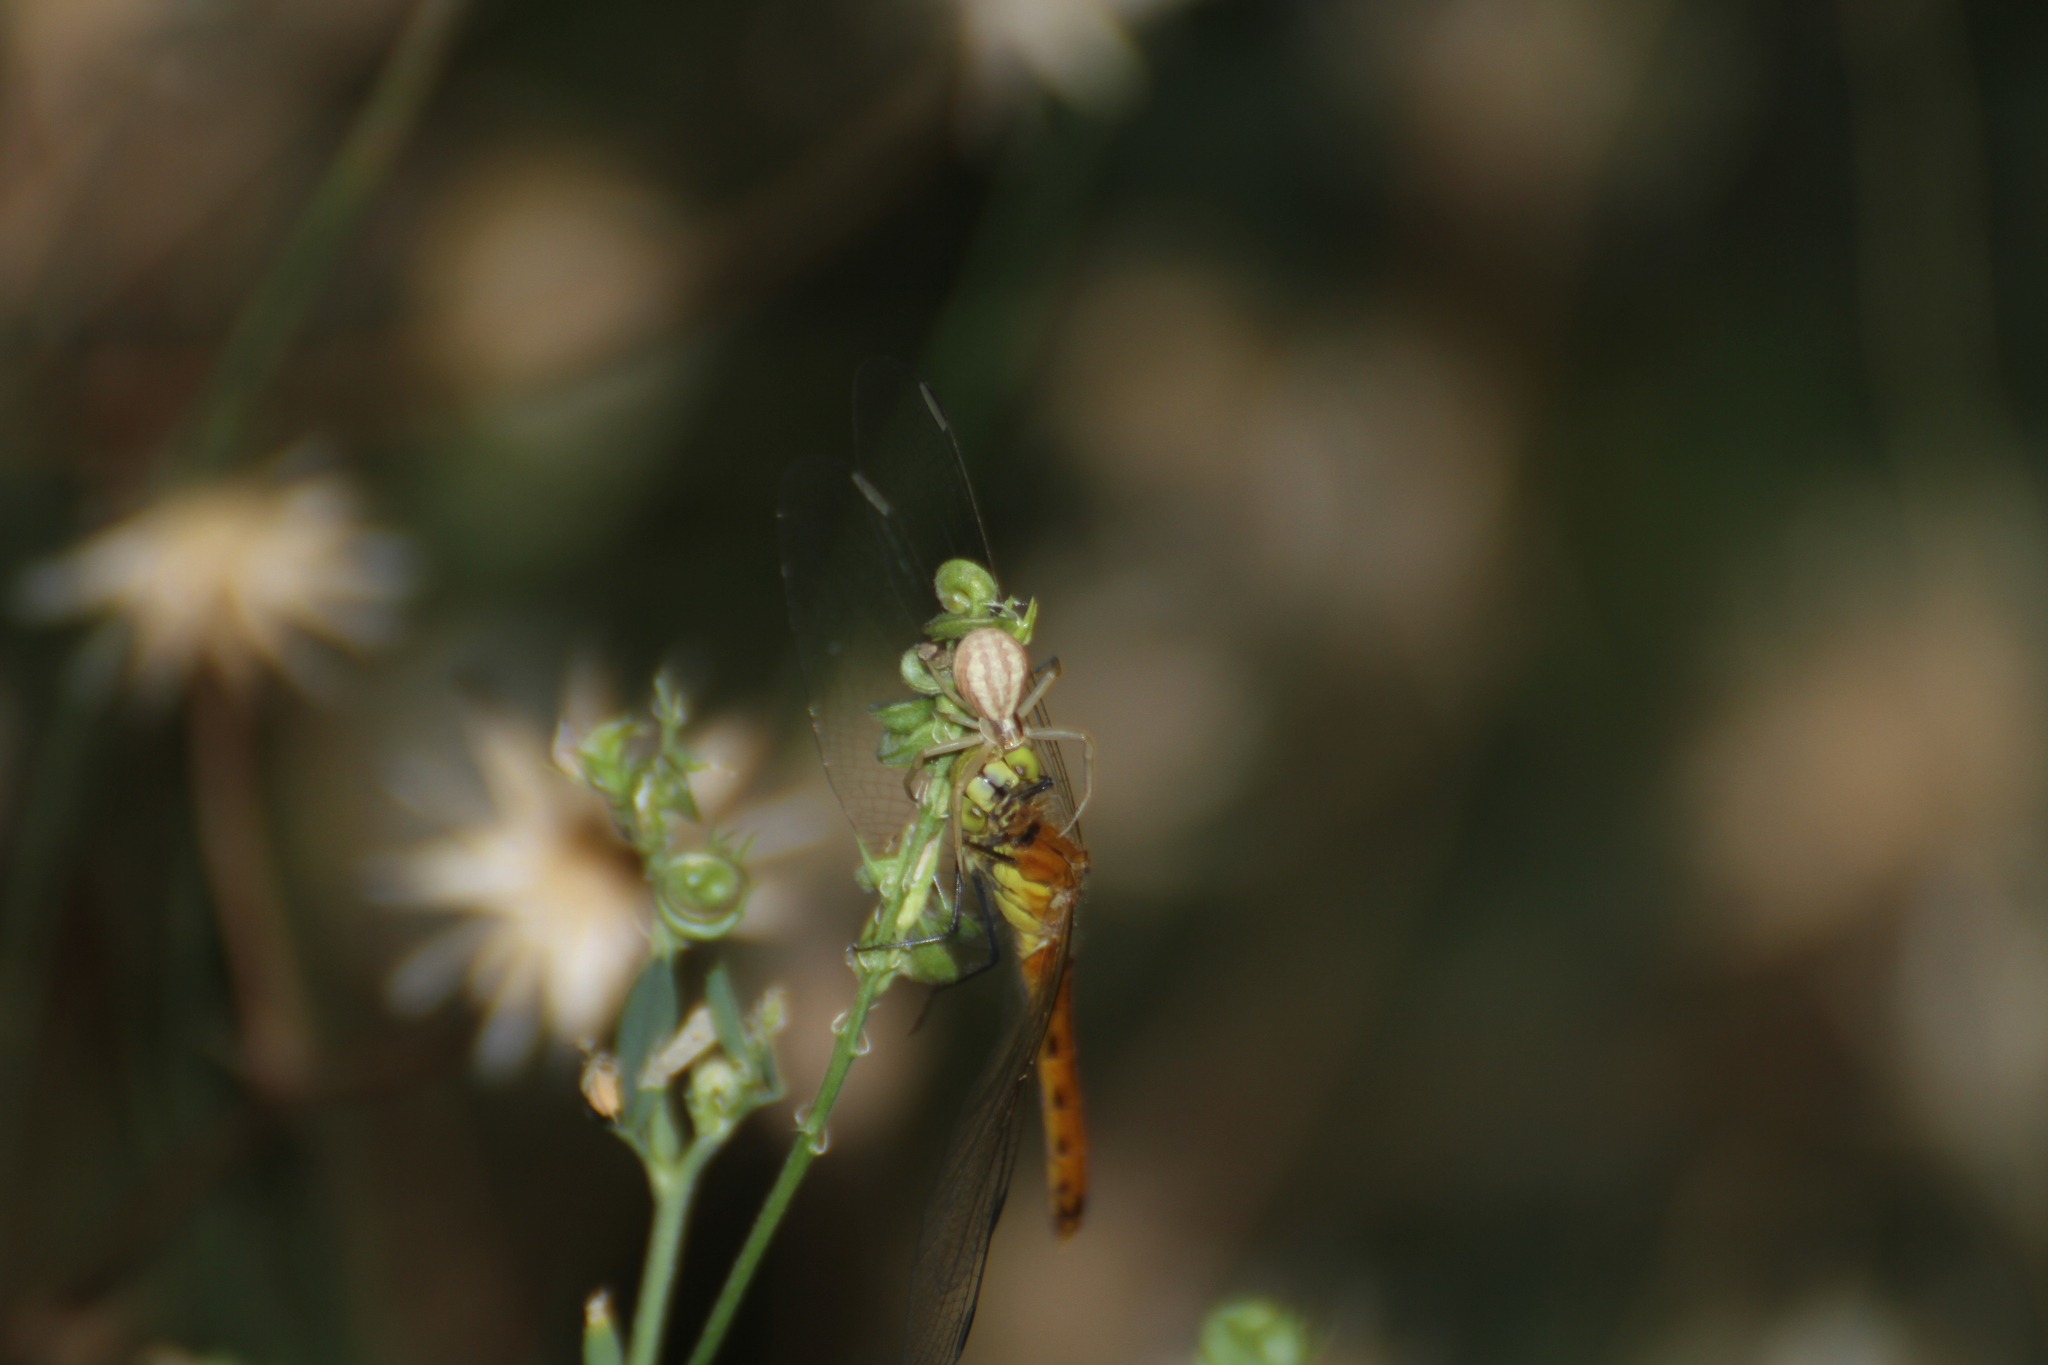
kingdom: Animalia
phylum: Arthropoda
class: Arachnida
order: Araneae
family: Thomisidae
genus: Runcinia
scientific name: Runcinia grammica
